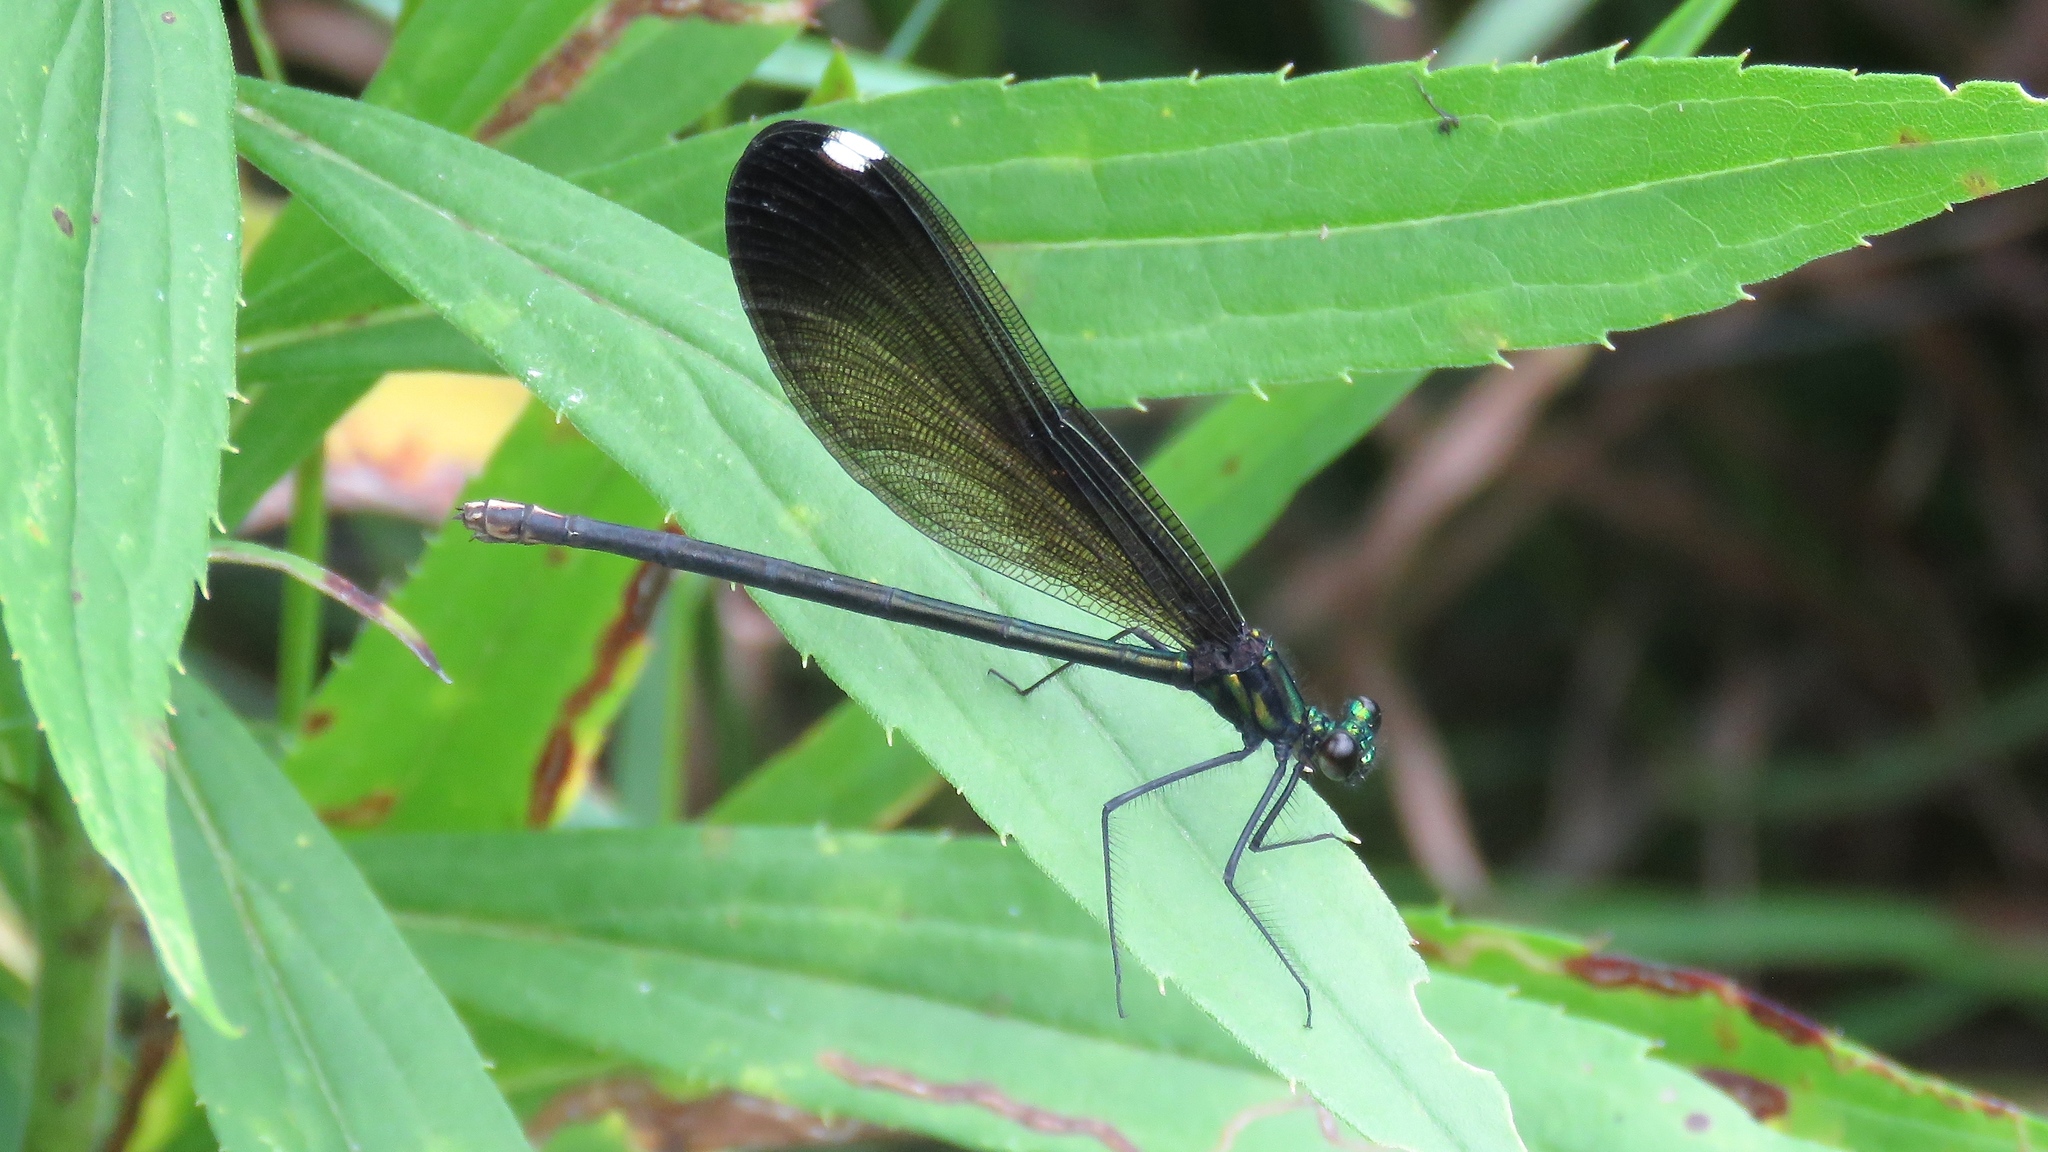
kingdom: Animalia
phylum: Arthropoda
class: Insecta
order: Odonata
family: Calopterygidae
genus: Calopteryx
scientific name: Calopteryx maculata
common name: Ebony jewelwing
